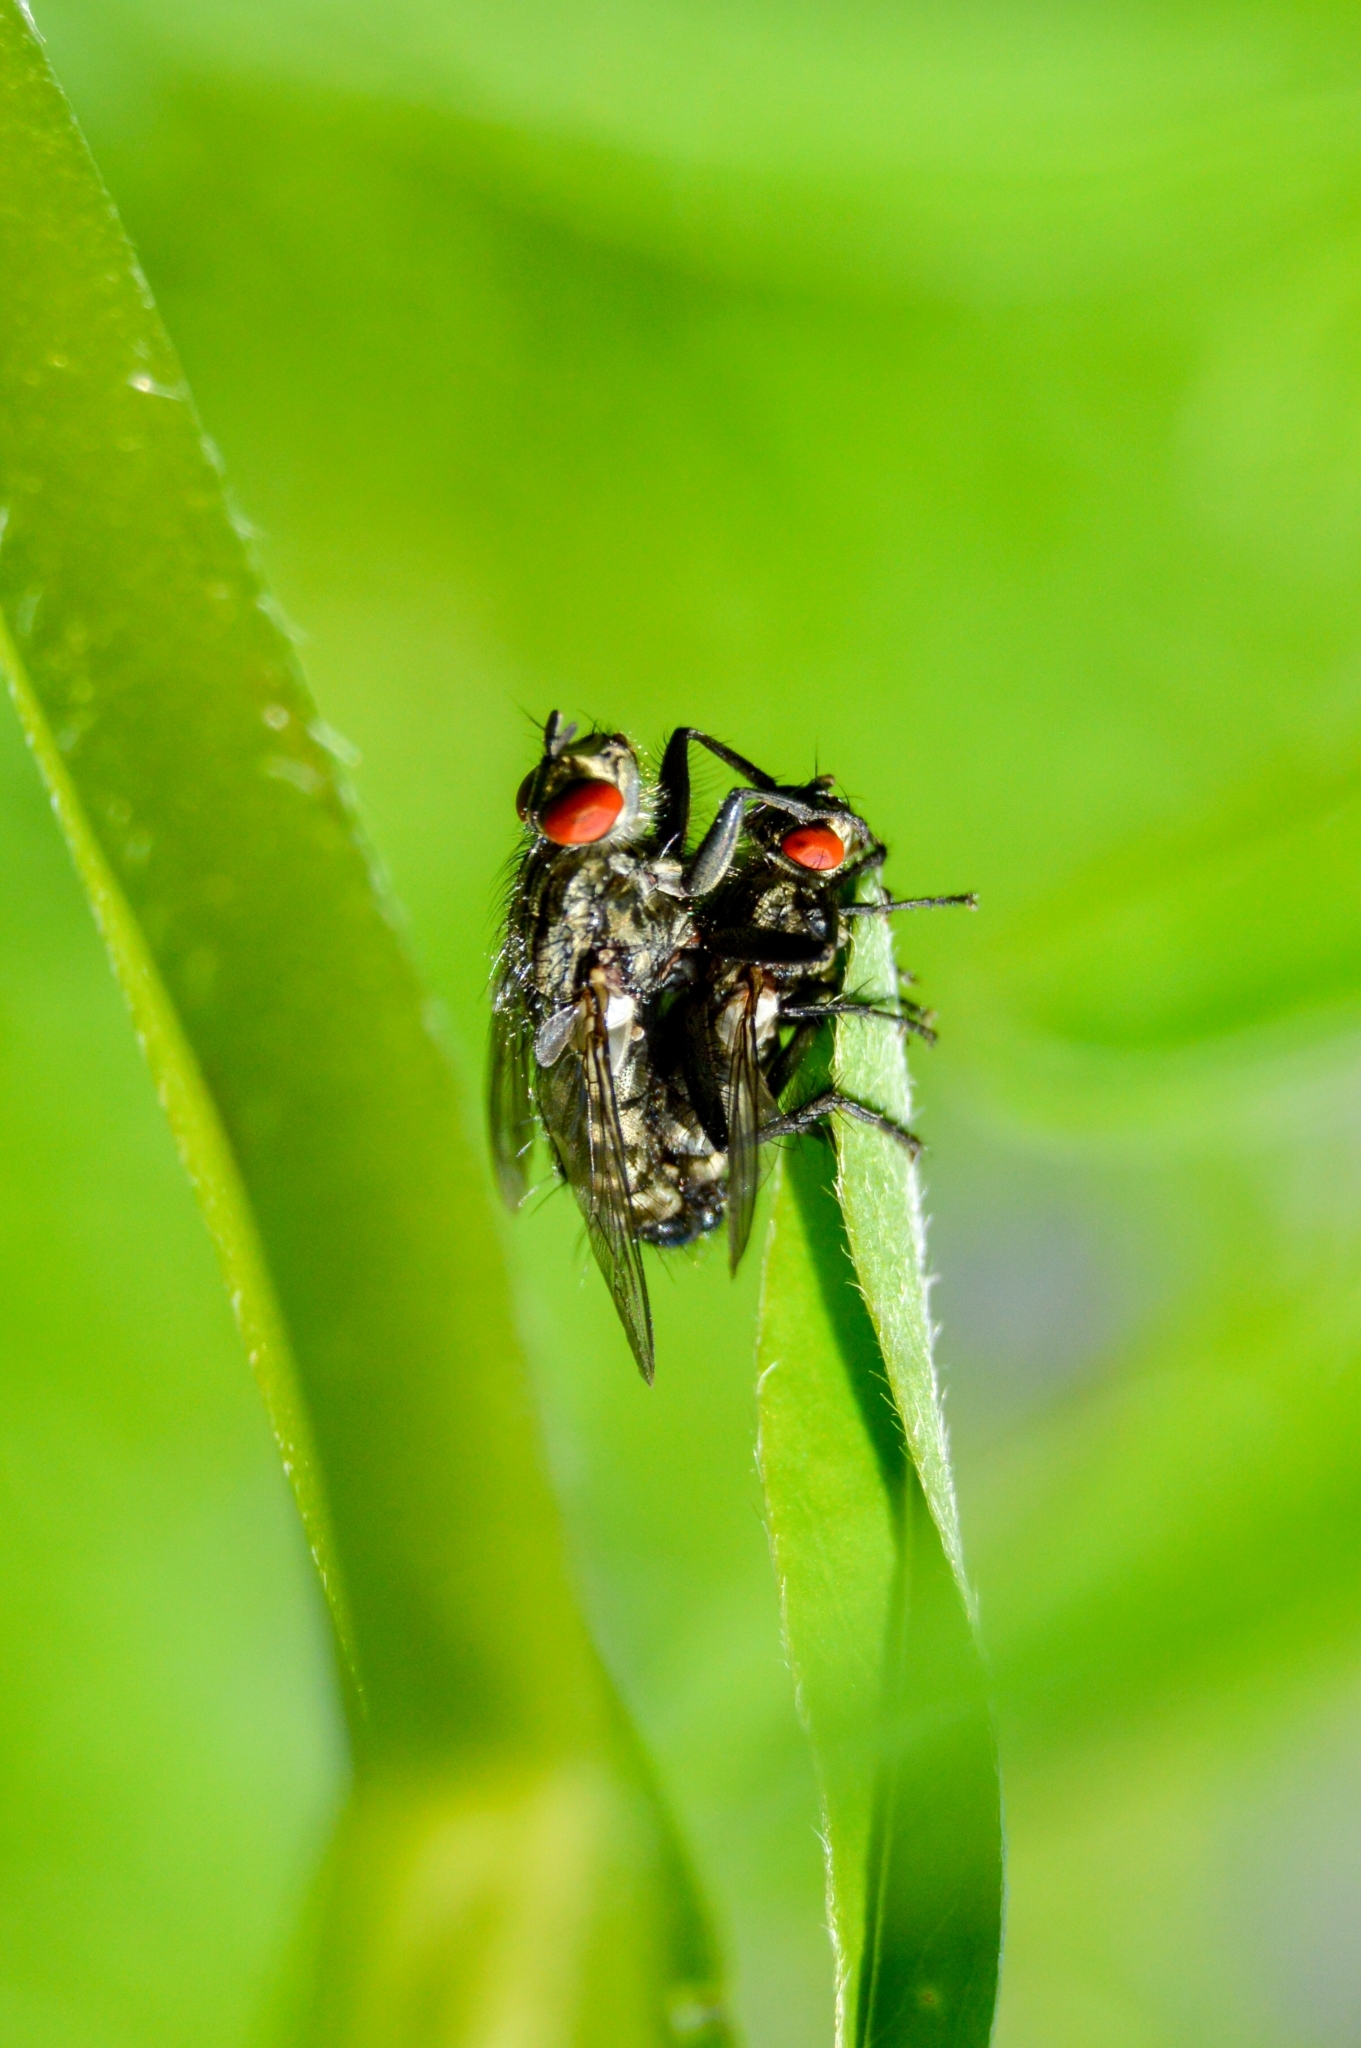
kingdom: Animalia
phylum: Arthropoda
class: Insecta
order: Diptera
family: Sarcophagidae
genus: Sarcophaga
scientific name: Sarcophaga
